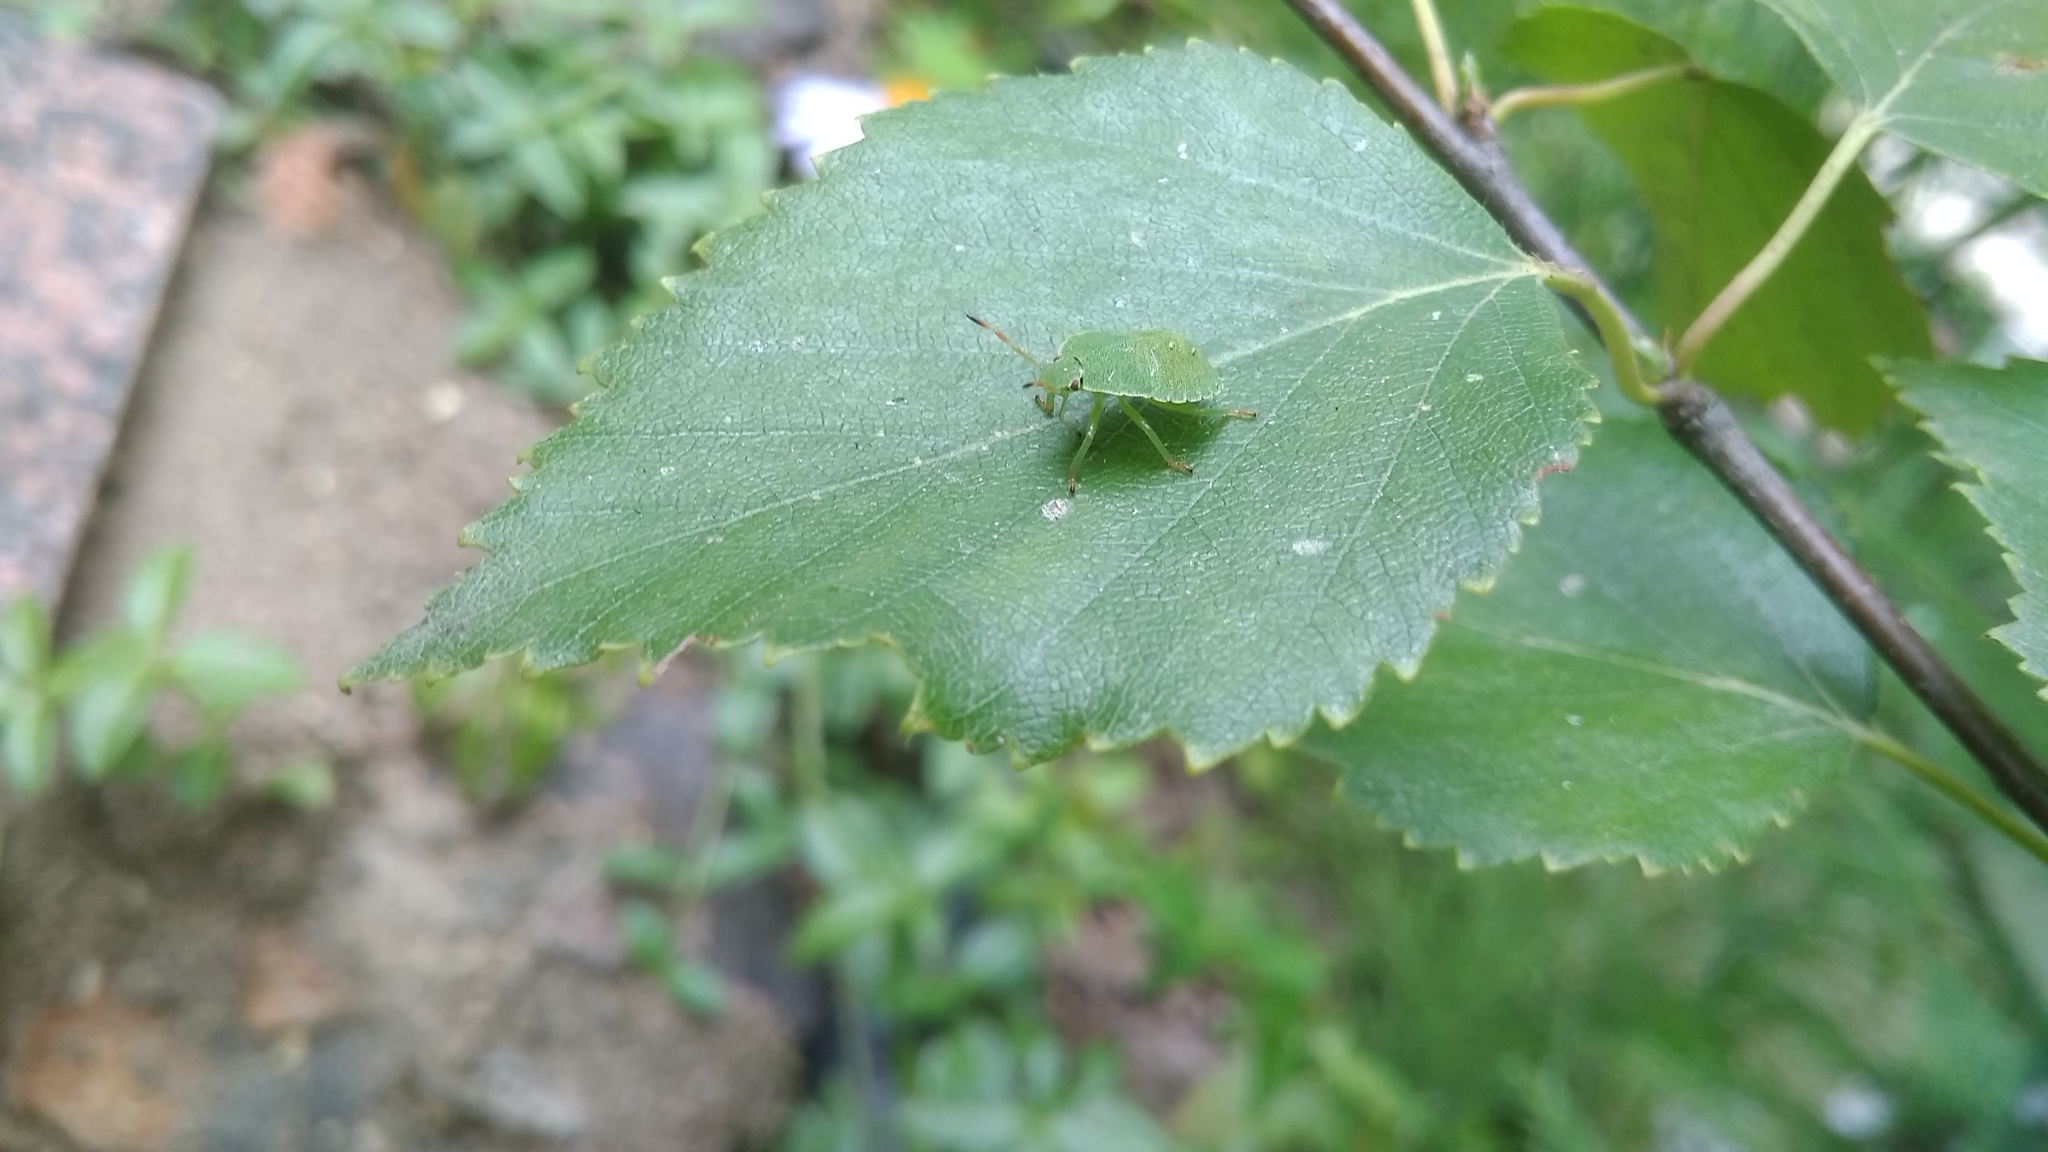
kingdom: Animalia
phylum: Arthropoda
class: Insecta
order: Hemiptera
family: Pentatomidae
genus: Palomena
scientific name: Palomena prasina
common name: Green shieldbug
